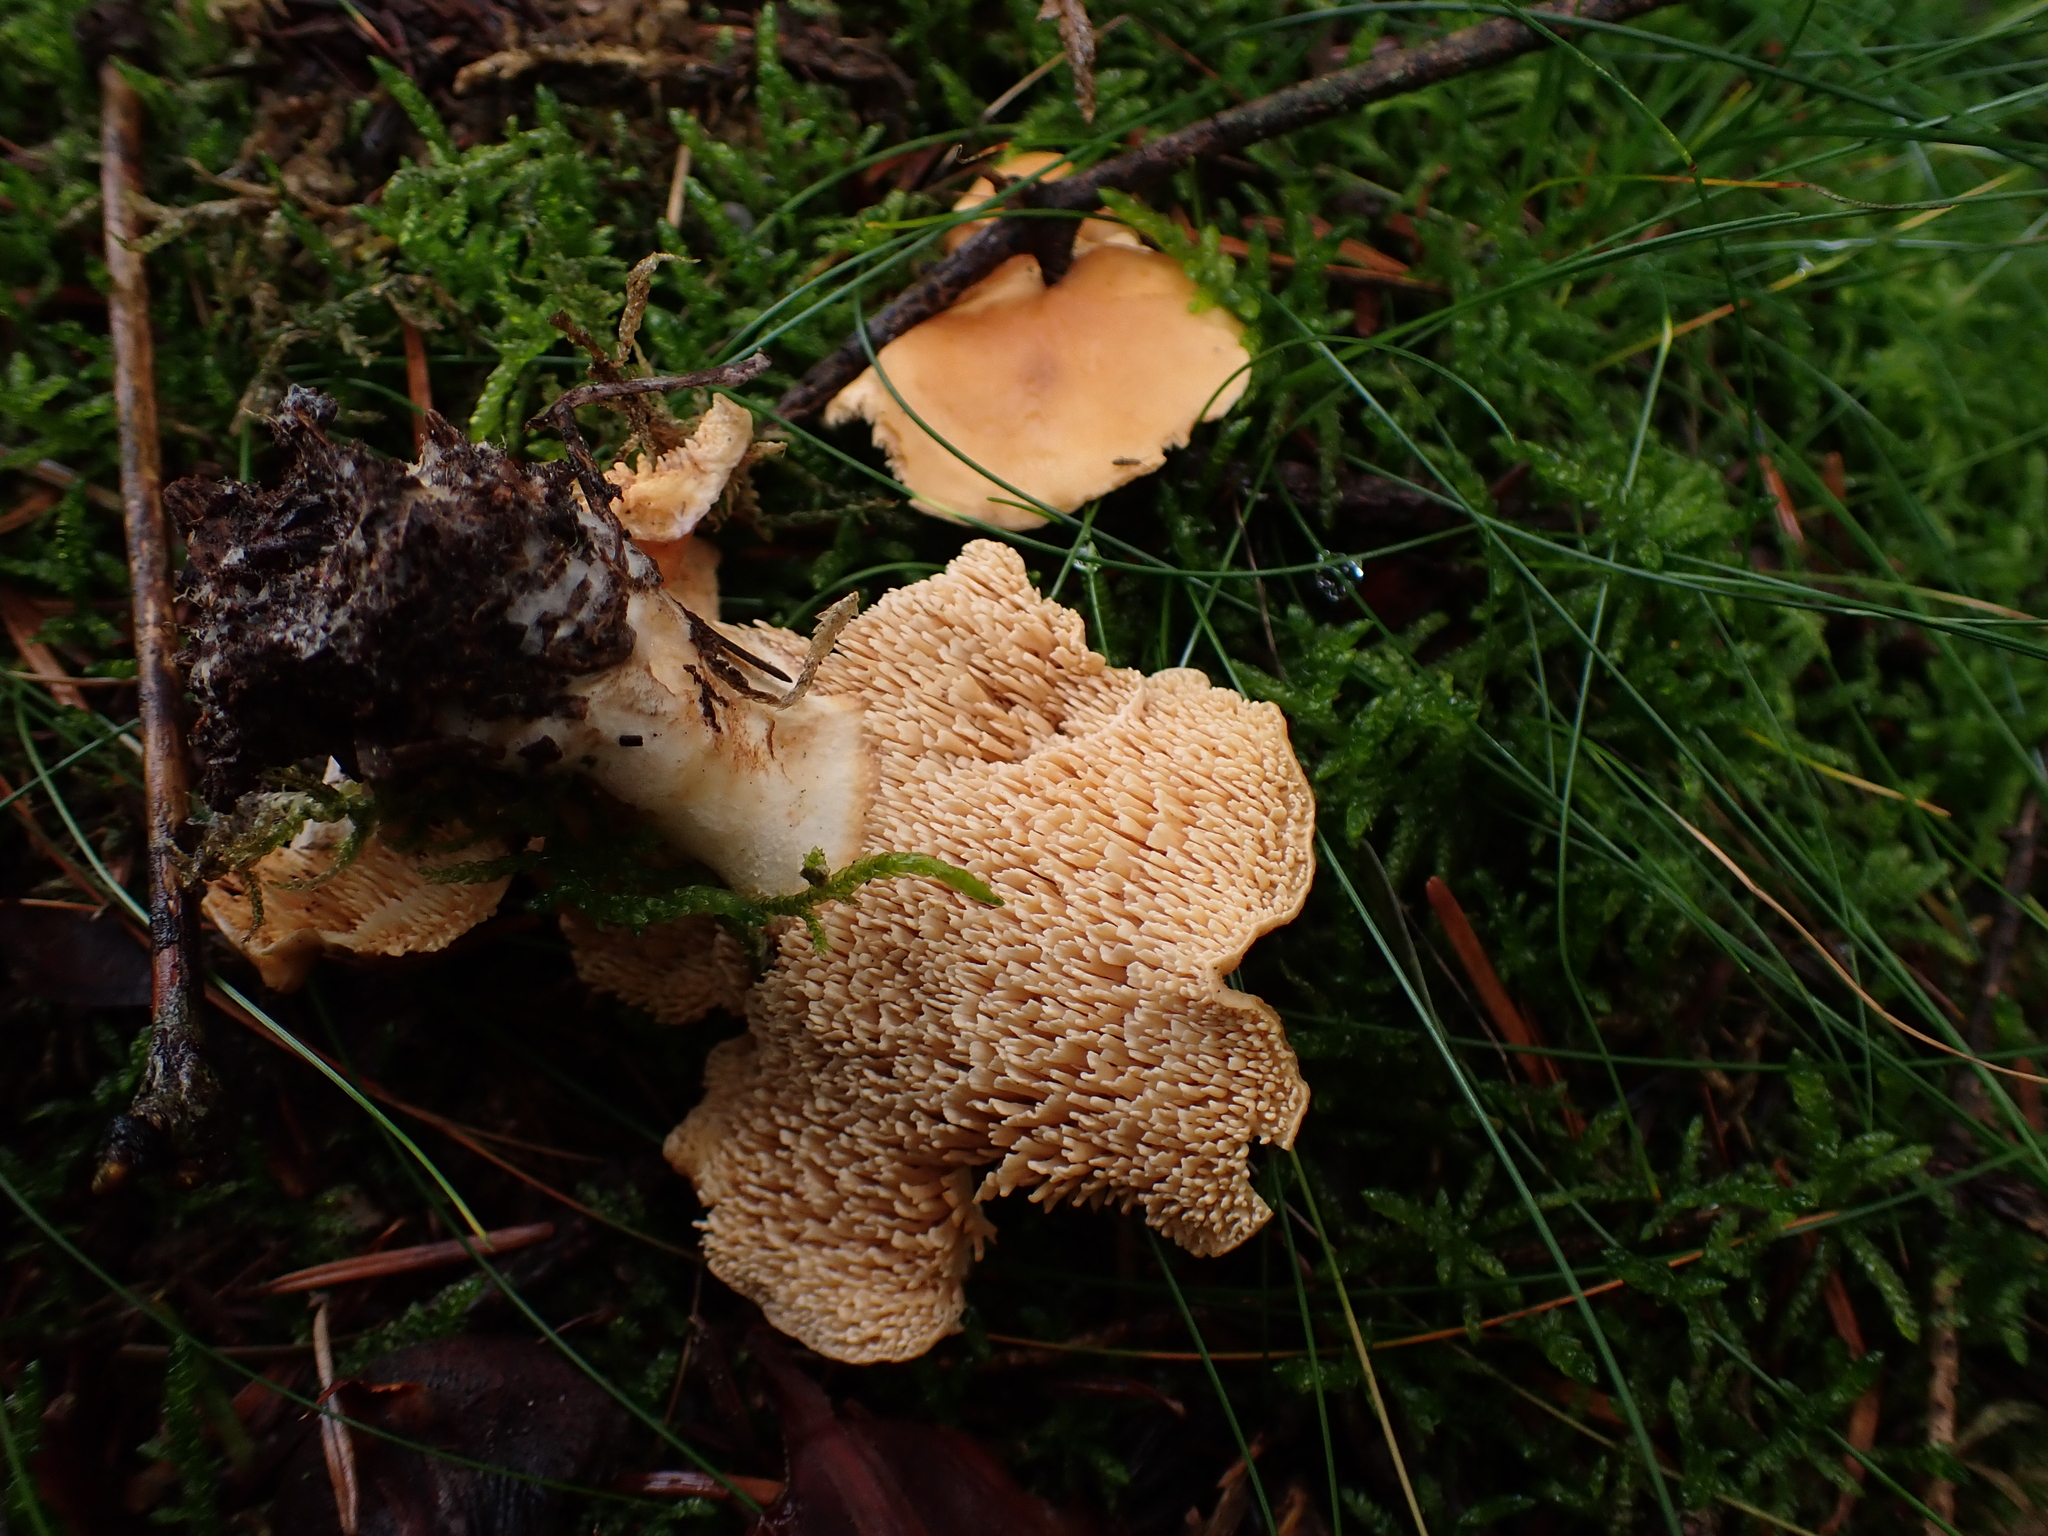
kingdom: Fungi
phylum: Basidiomycota
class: Agaricomycetes
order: Cantharellales
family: Hydnaceae
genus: Hydnum
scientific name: Hydnum rufescens
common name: Terracotta hedgehog
